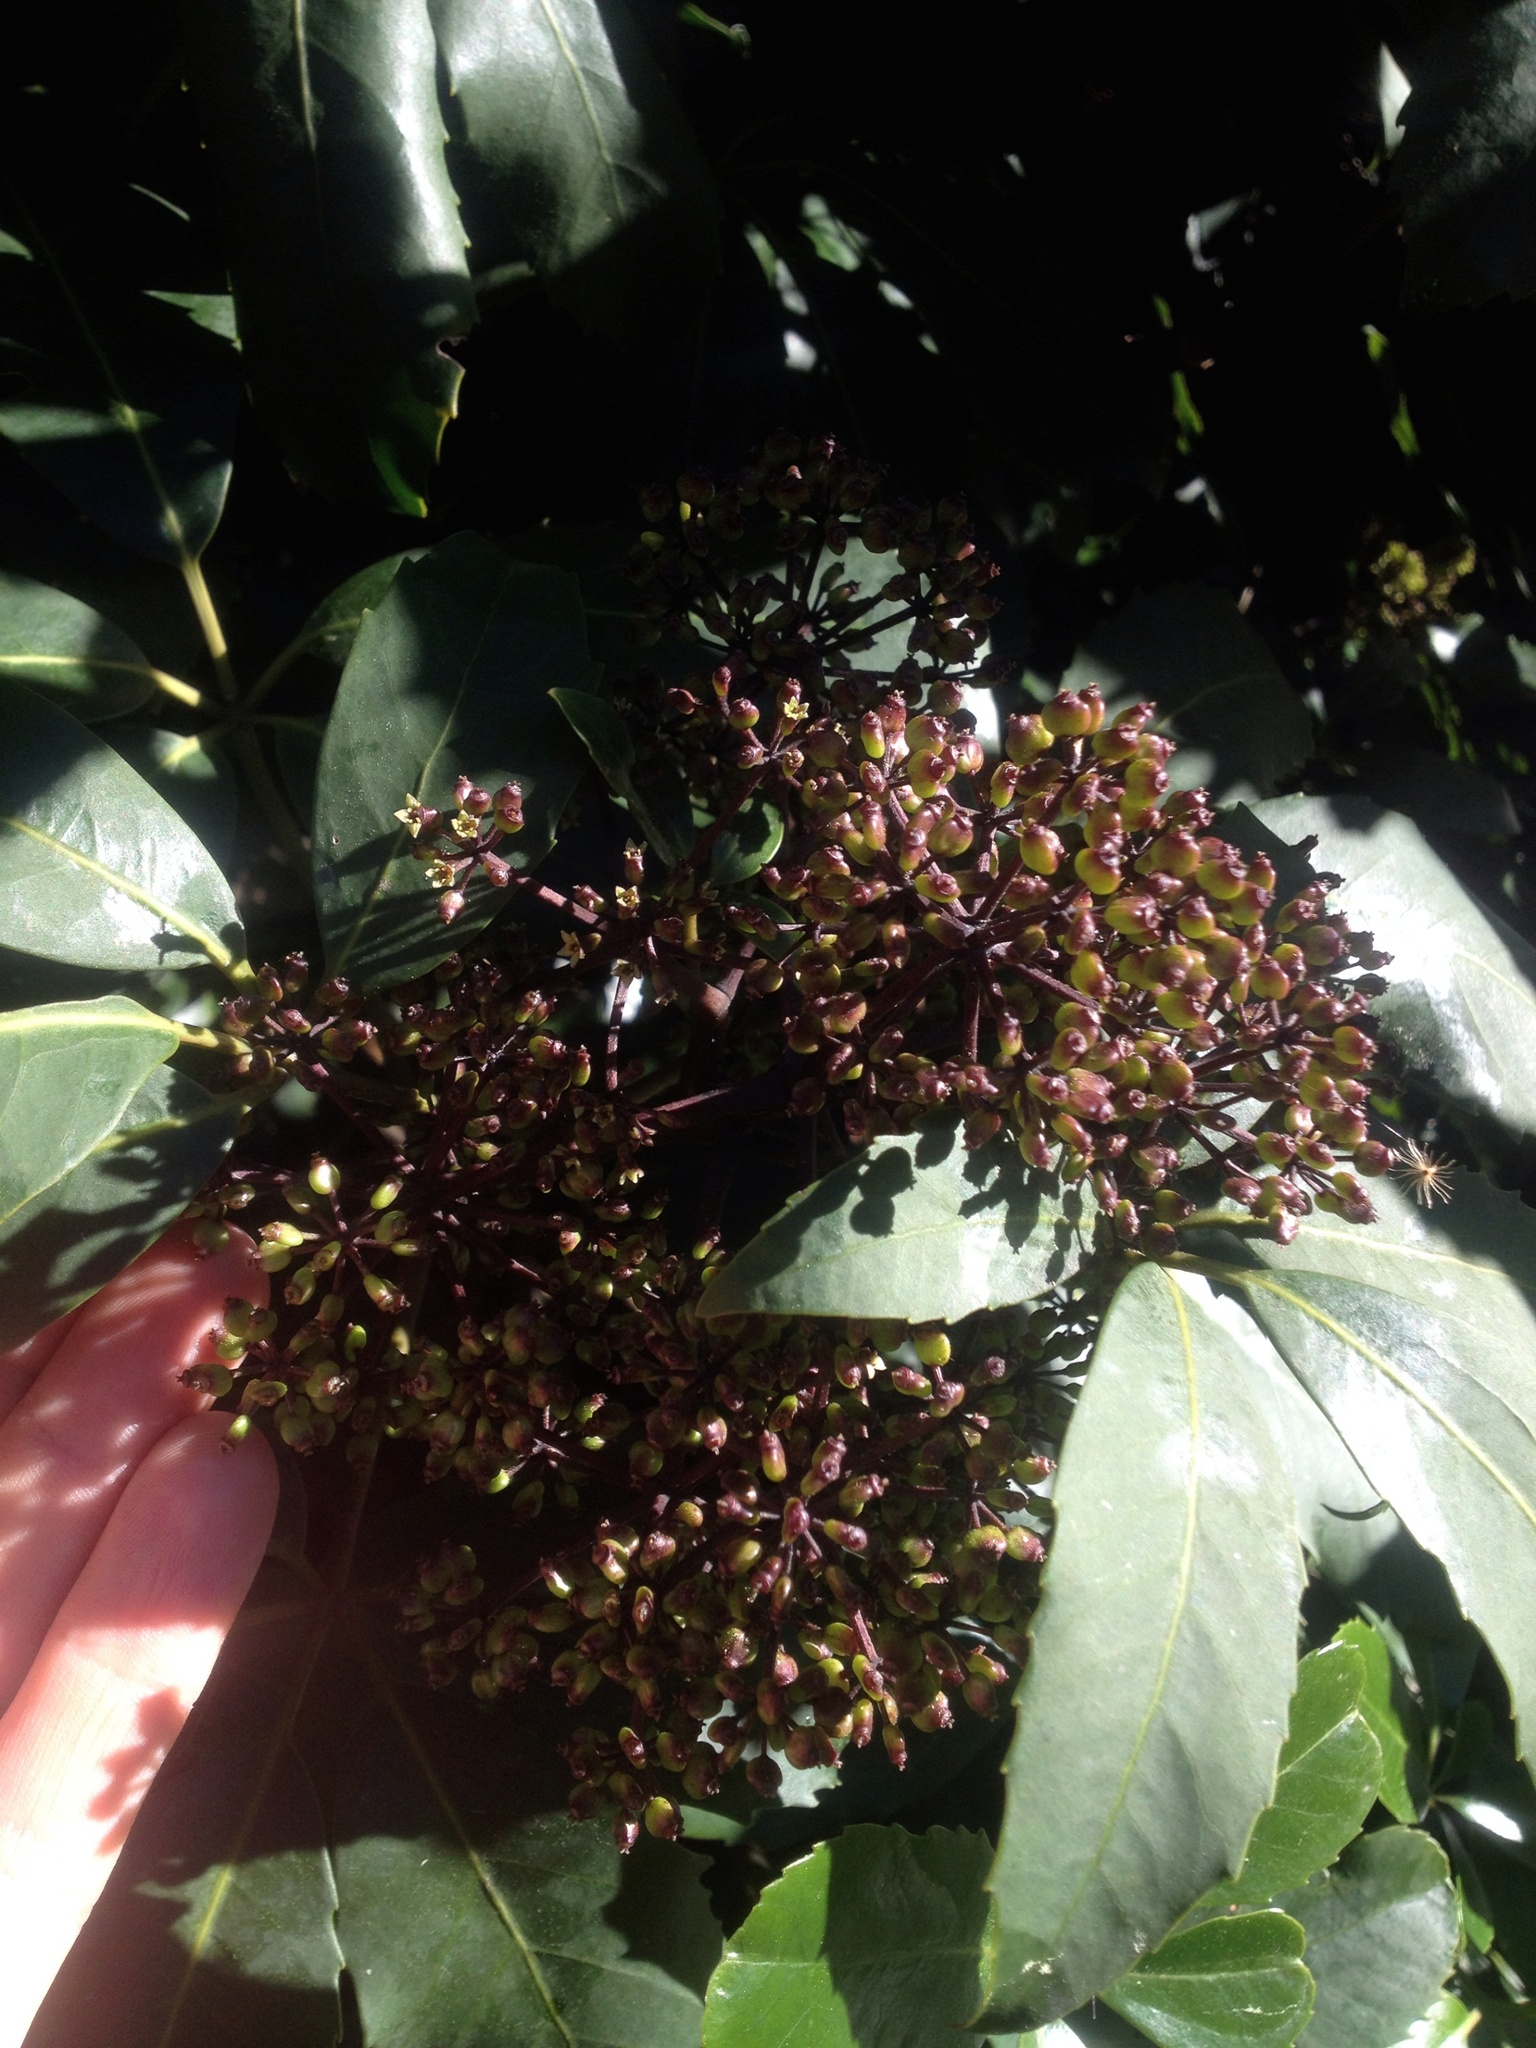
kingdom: Plantae
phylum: Tracheophyta
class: Magnoliopsida
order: Apiales
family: Araliaceae
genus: Neopanax
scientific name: Neopanax arboreus
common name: Five-fingers
